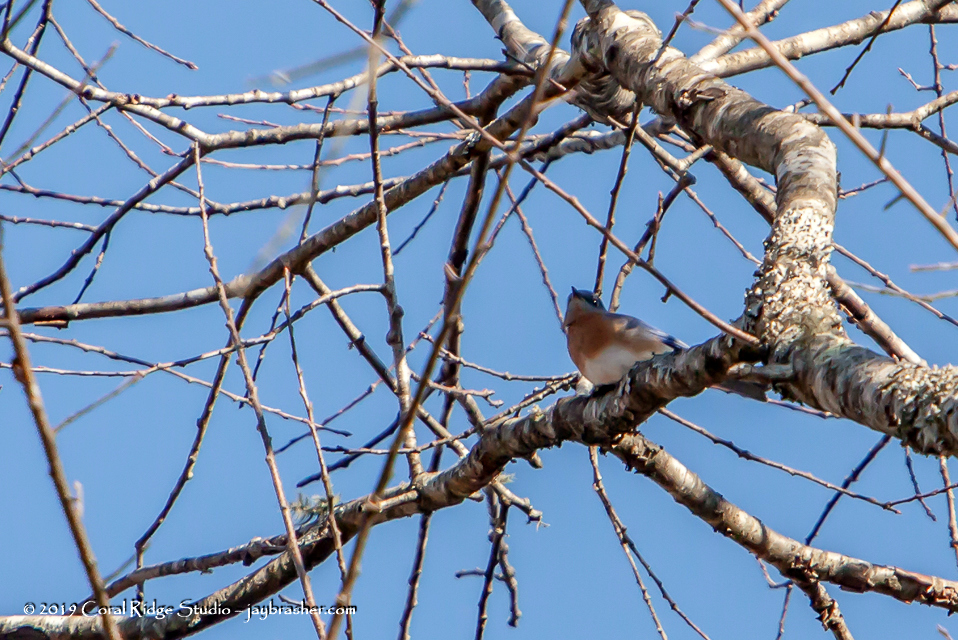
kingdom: Animalia
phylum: Chordata
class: Aves
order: Passeriformes
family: Turdidae
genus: Sialia
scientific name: Sialia sialis
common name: Eastern bluebird
